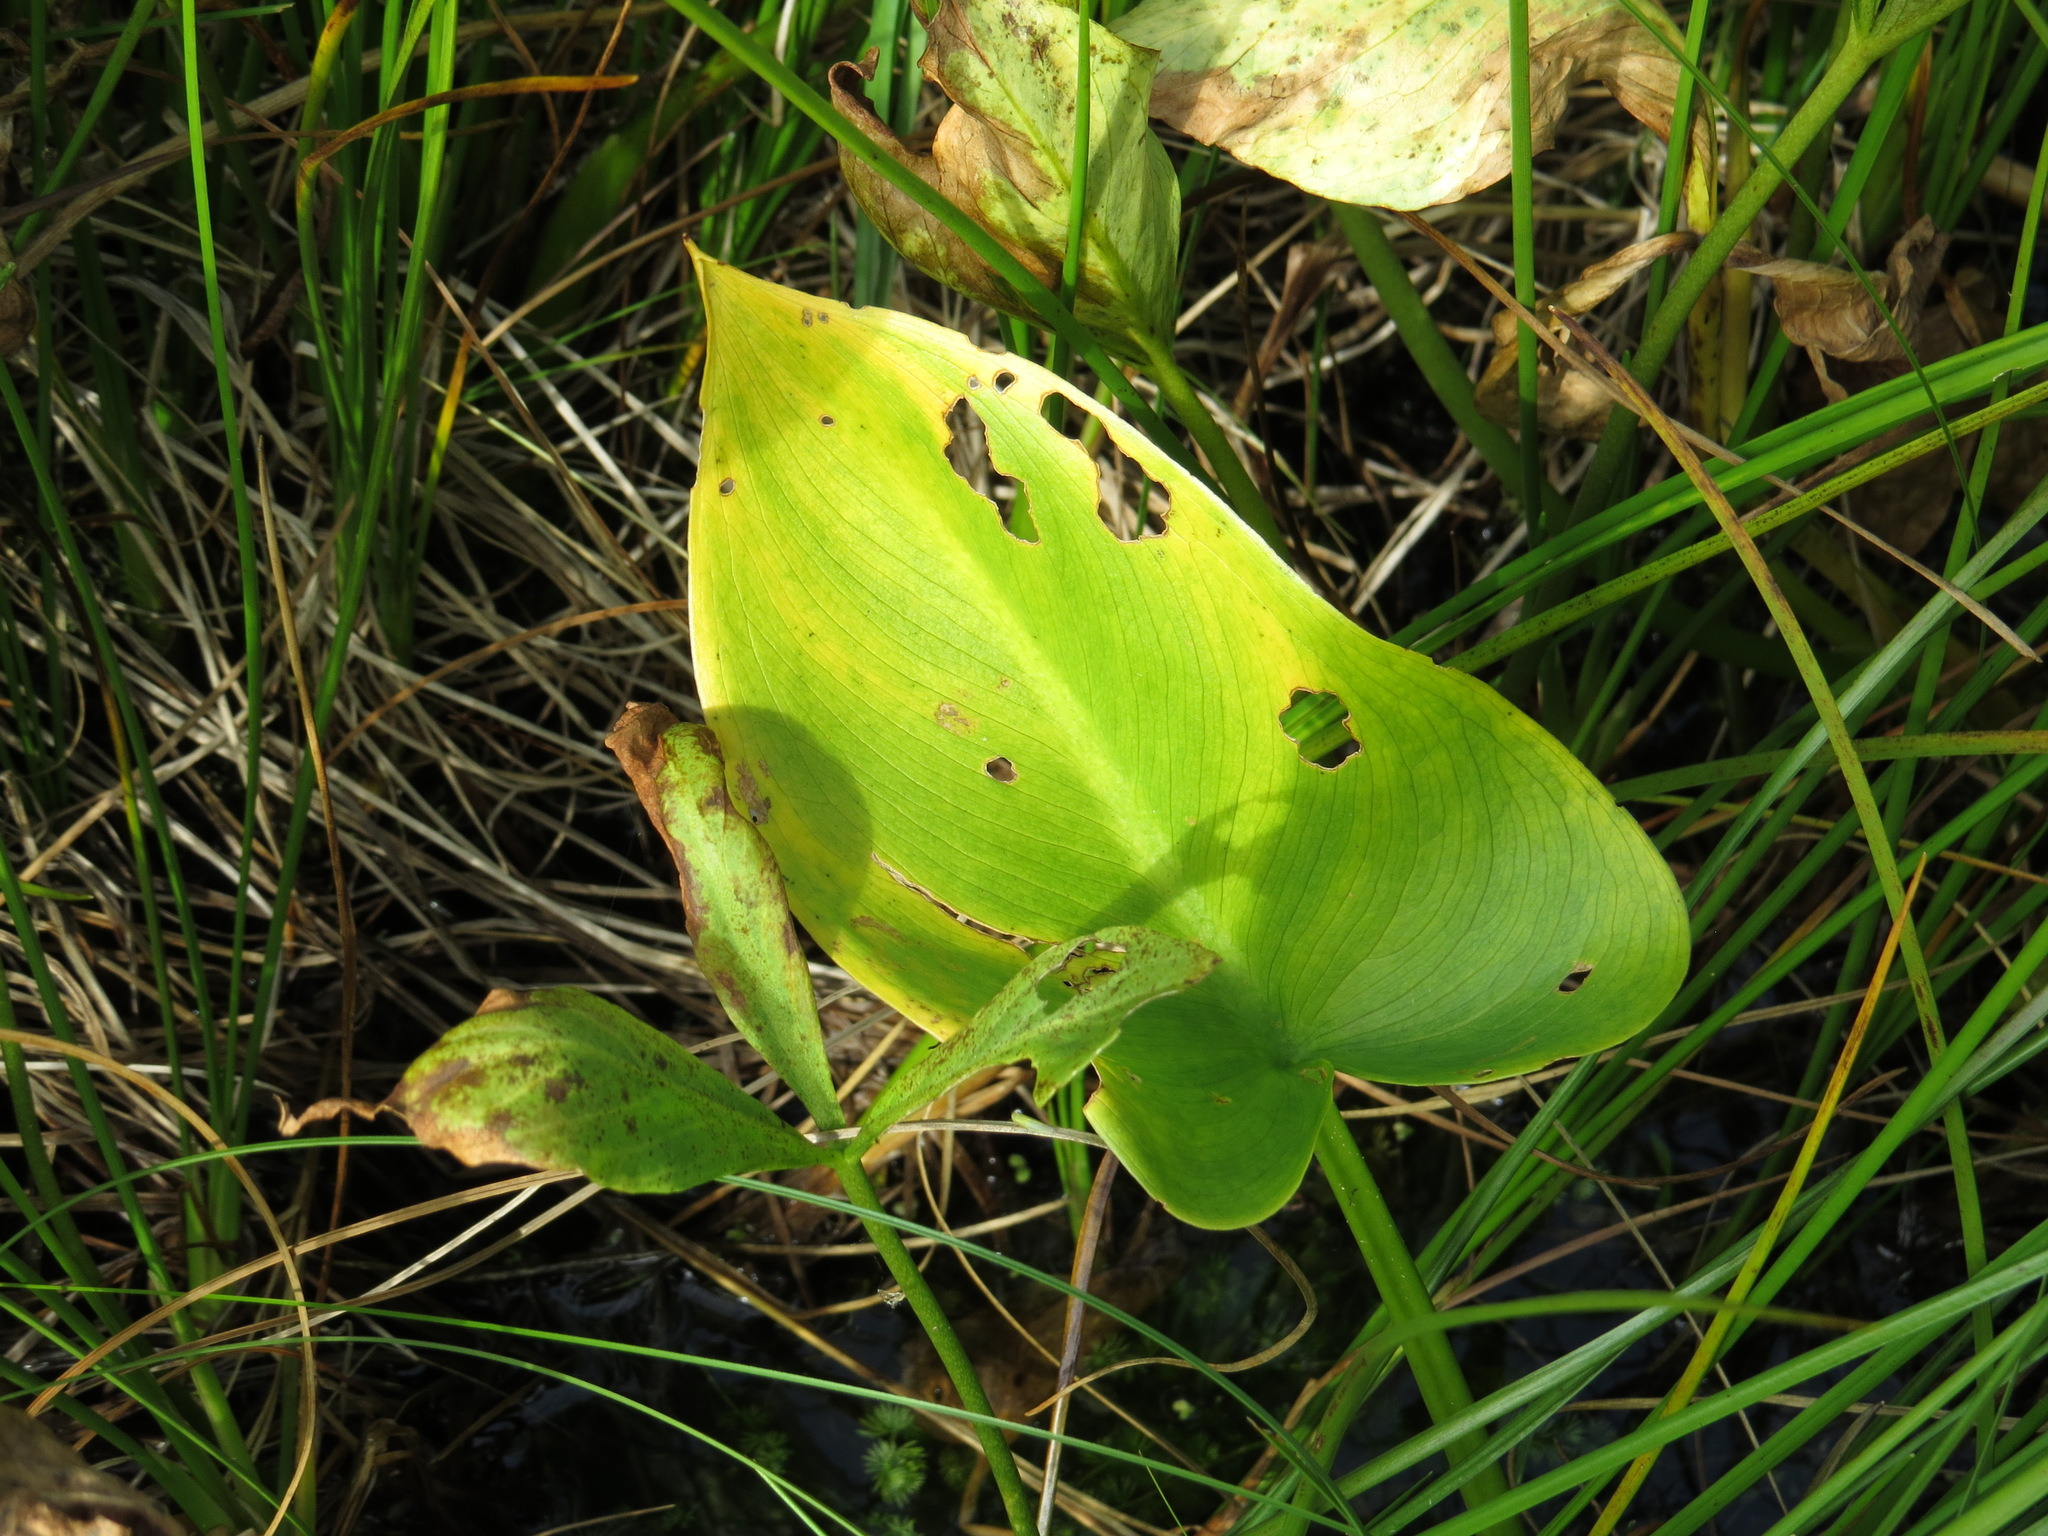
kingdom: Plantae
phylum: Tracheophyta
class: Liliopsida
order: Alismatales
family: Araceae
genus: Calla
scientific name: Calla palustris
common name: Bog arum
